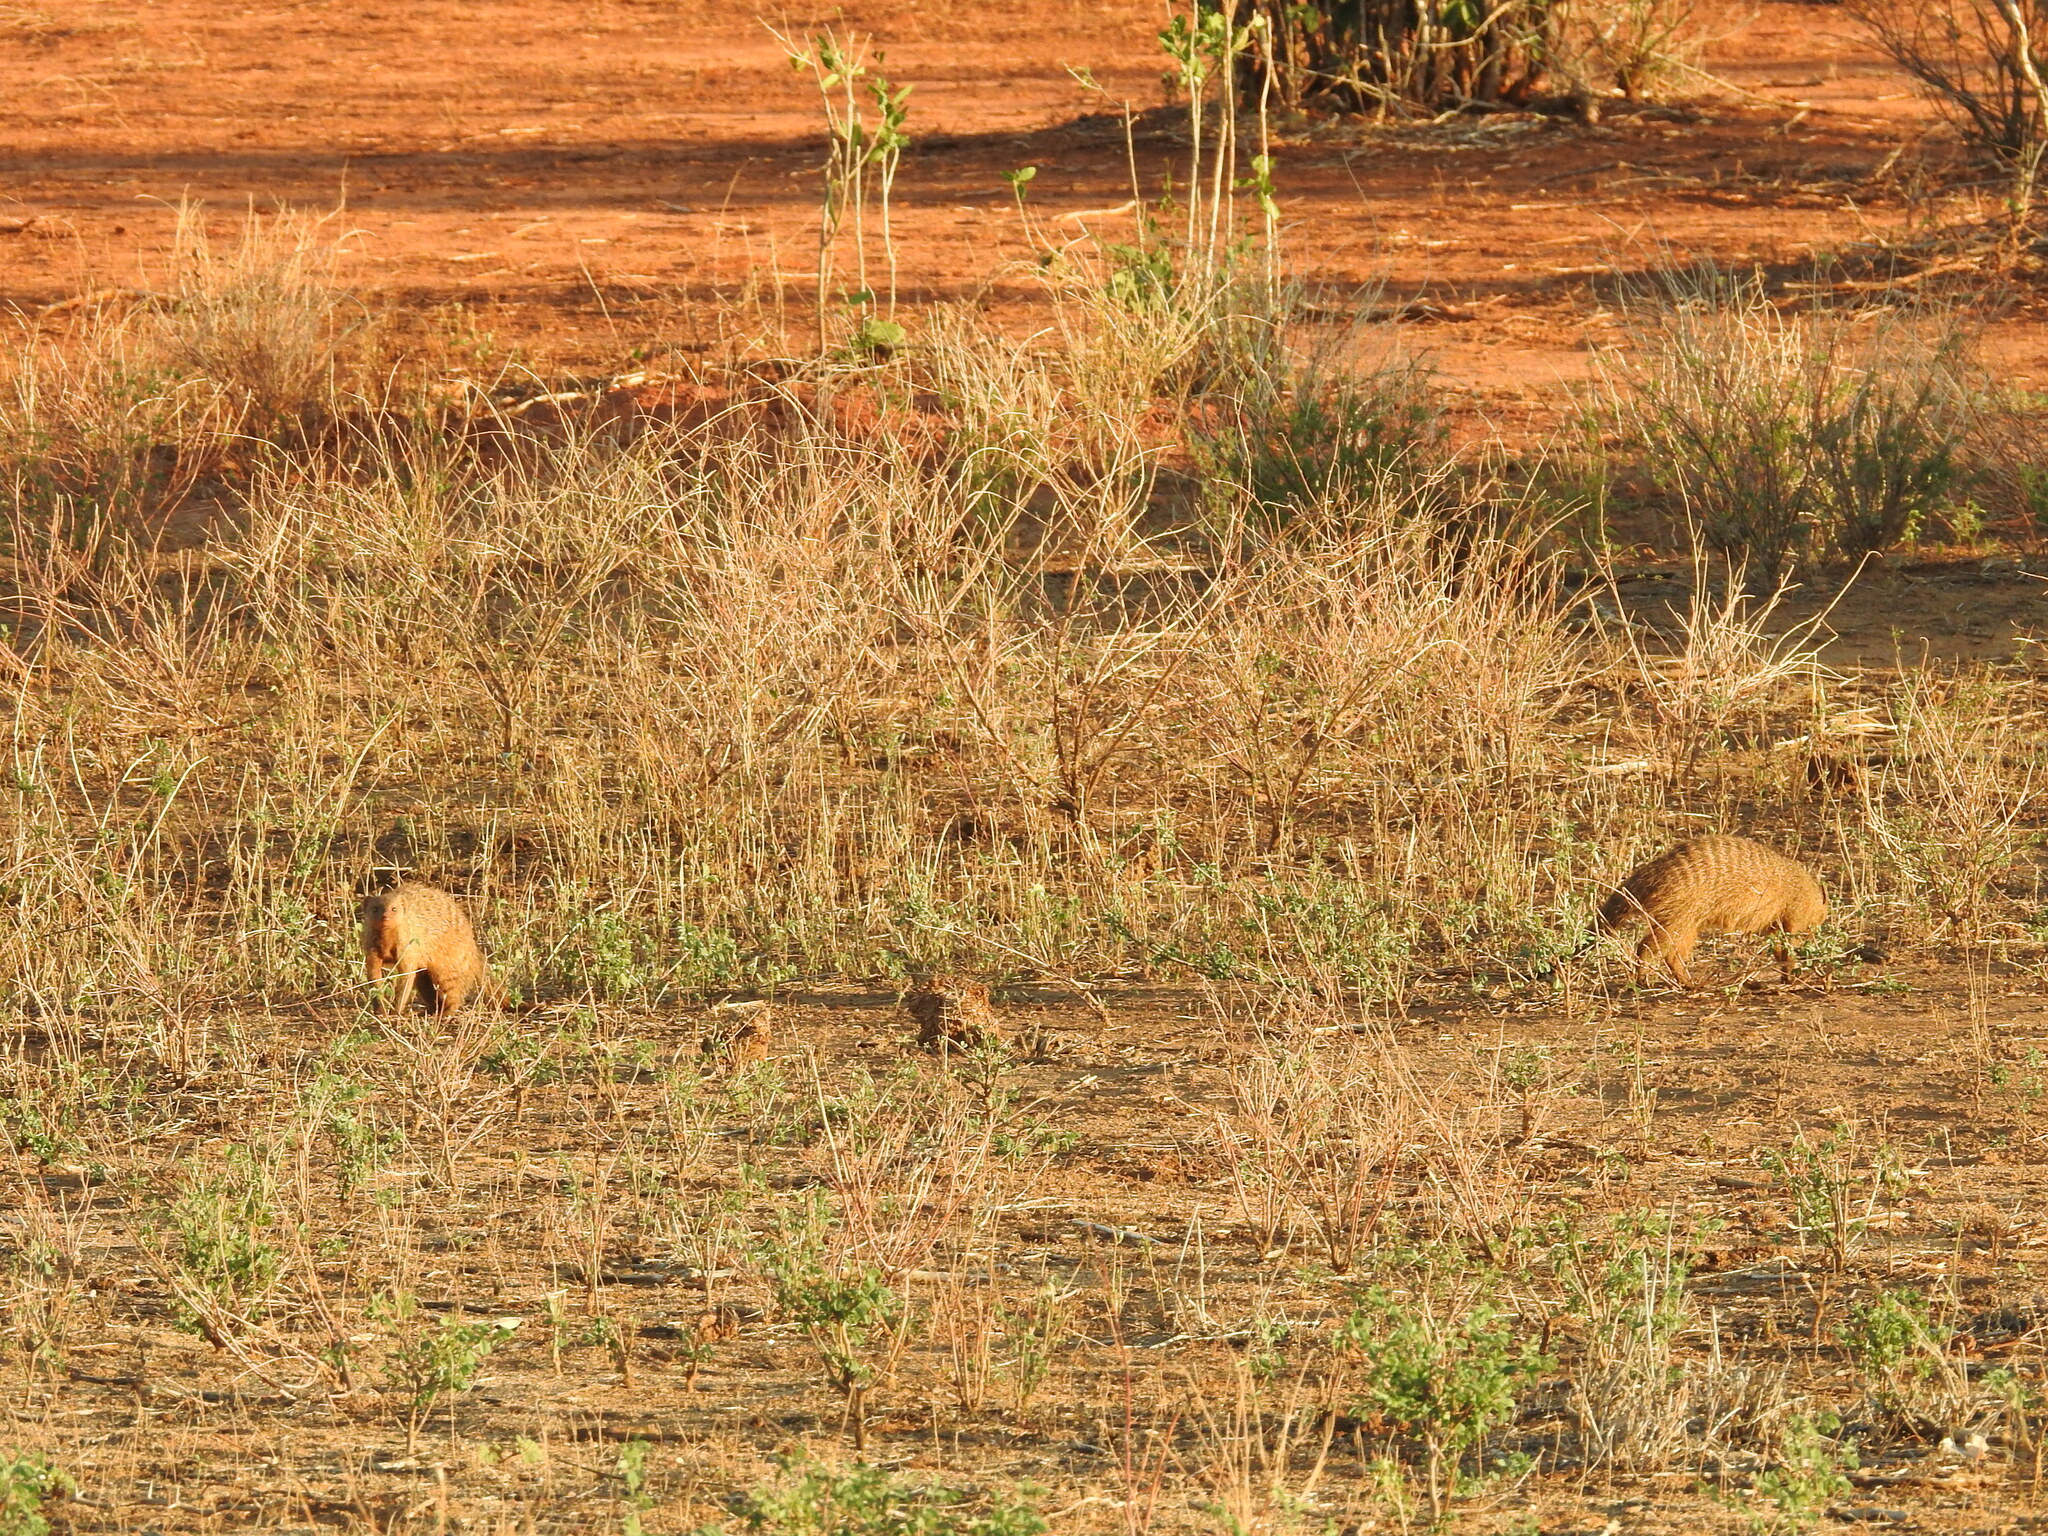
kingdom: Animalia
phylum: Chordata
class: Mammalia
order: Carnivora
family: Herpestidae
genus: Mungos
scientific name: Mungos mungo
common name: Banded mongoose
